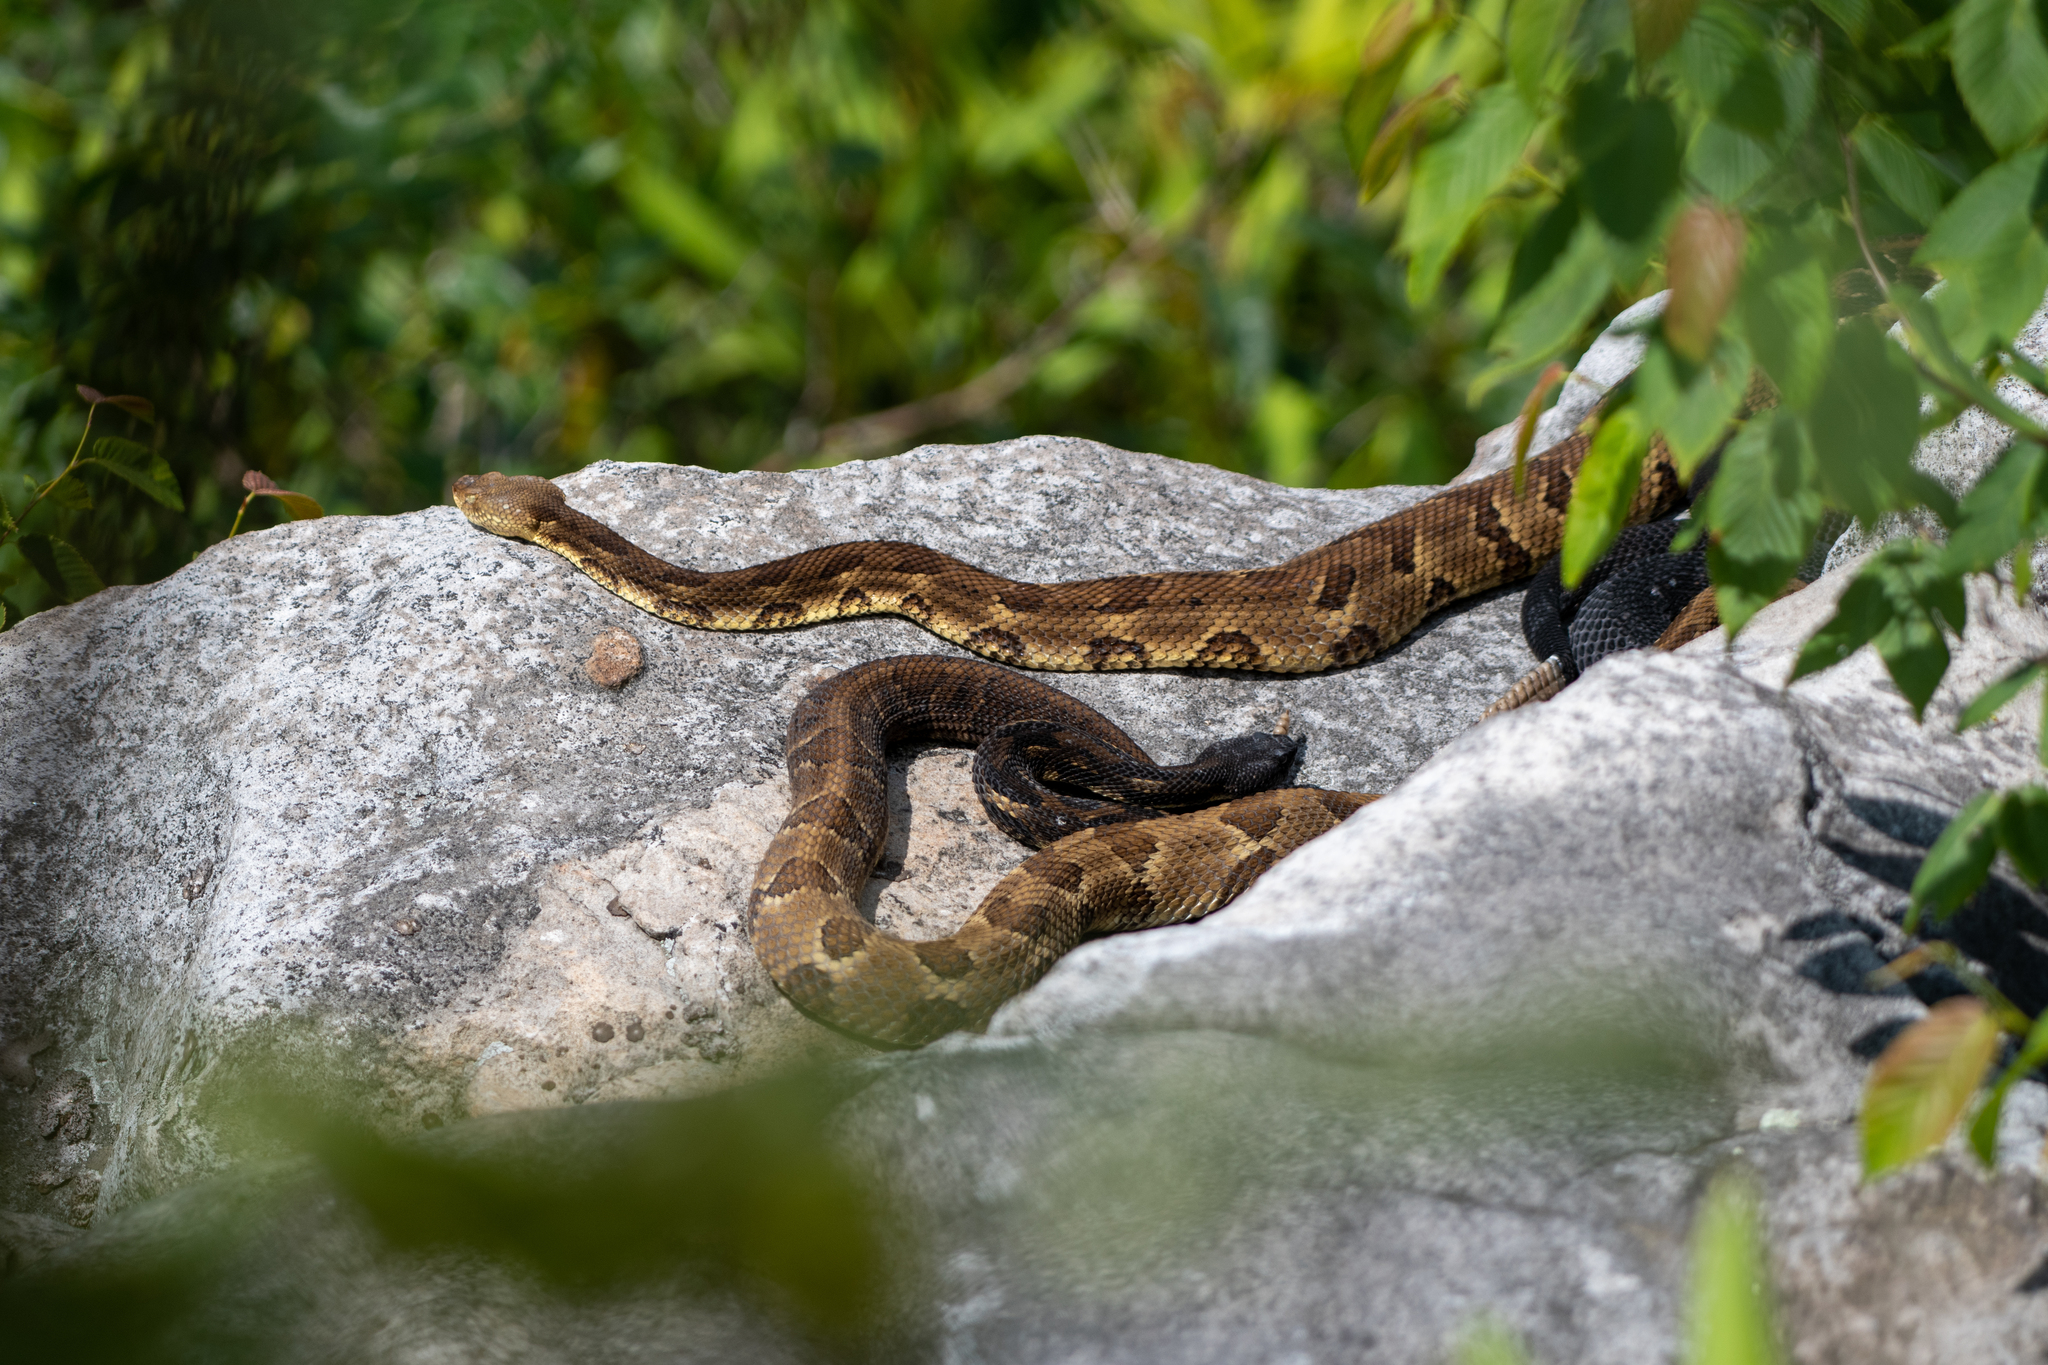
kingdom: Animalia
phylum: Chordata
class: Squamata
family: Viperidae
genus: Crotalus
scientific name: Crotalus horridus
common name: Timber rattlesnake
